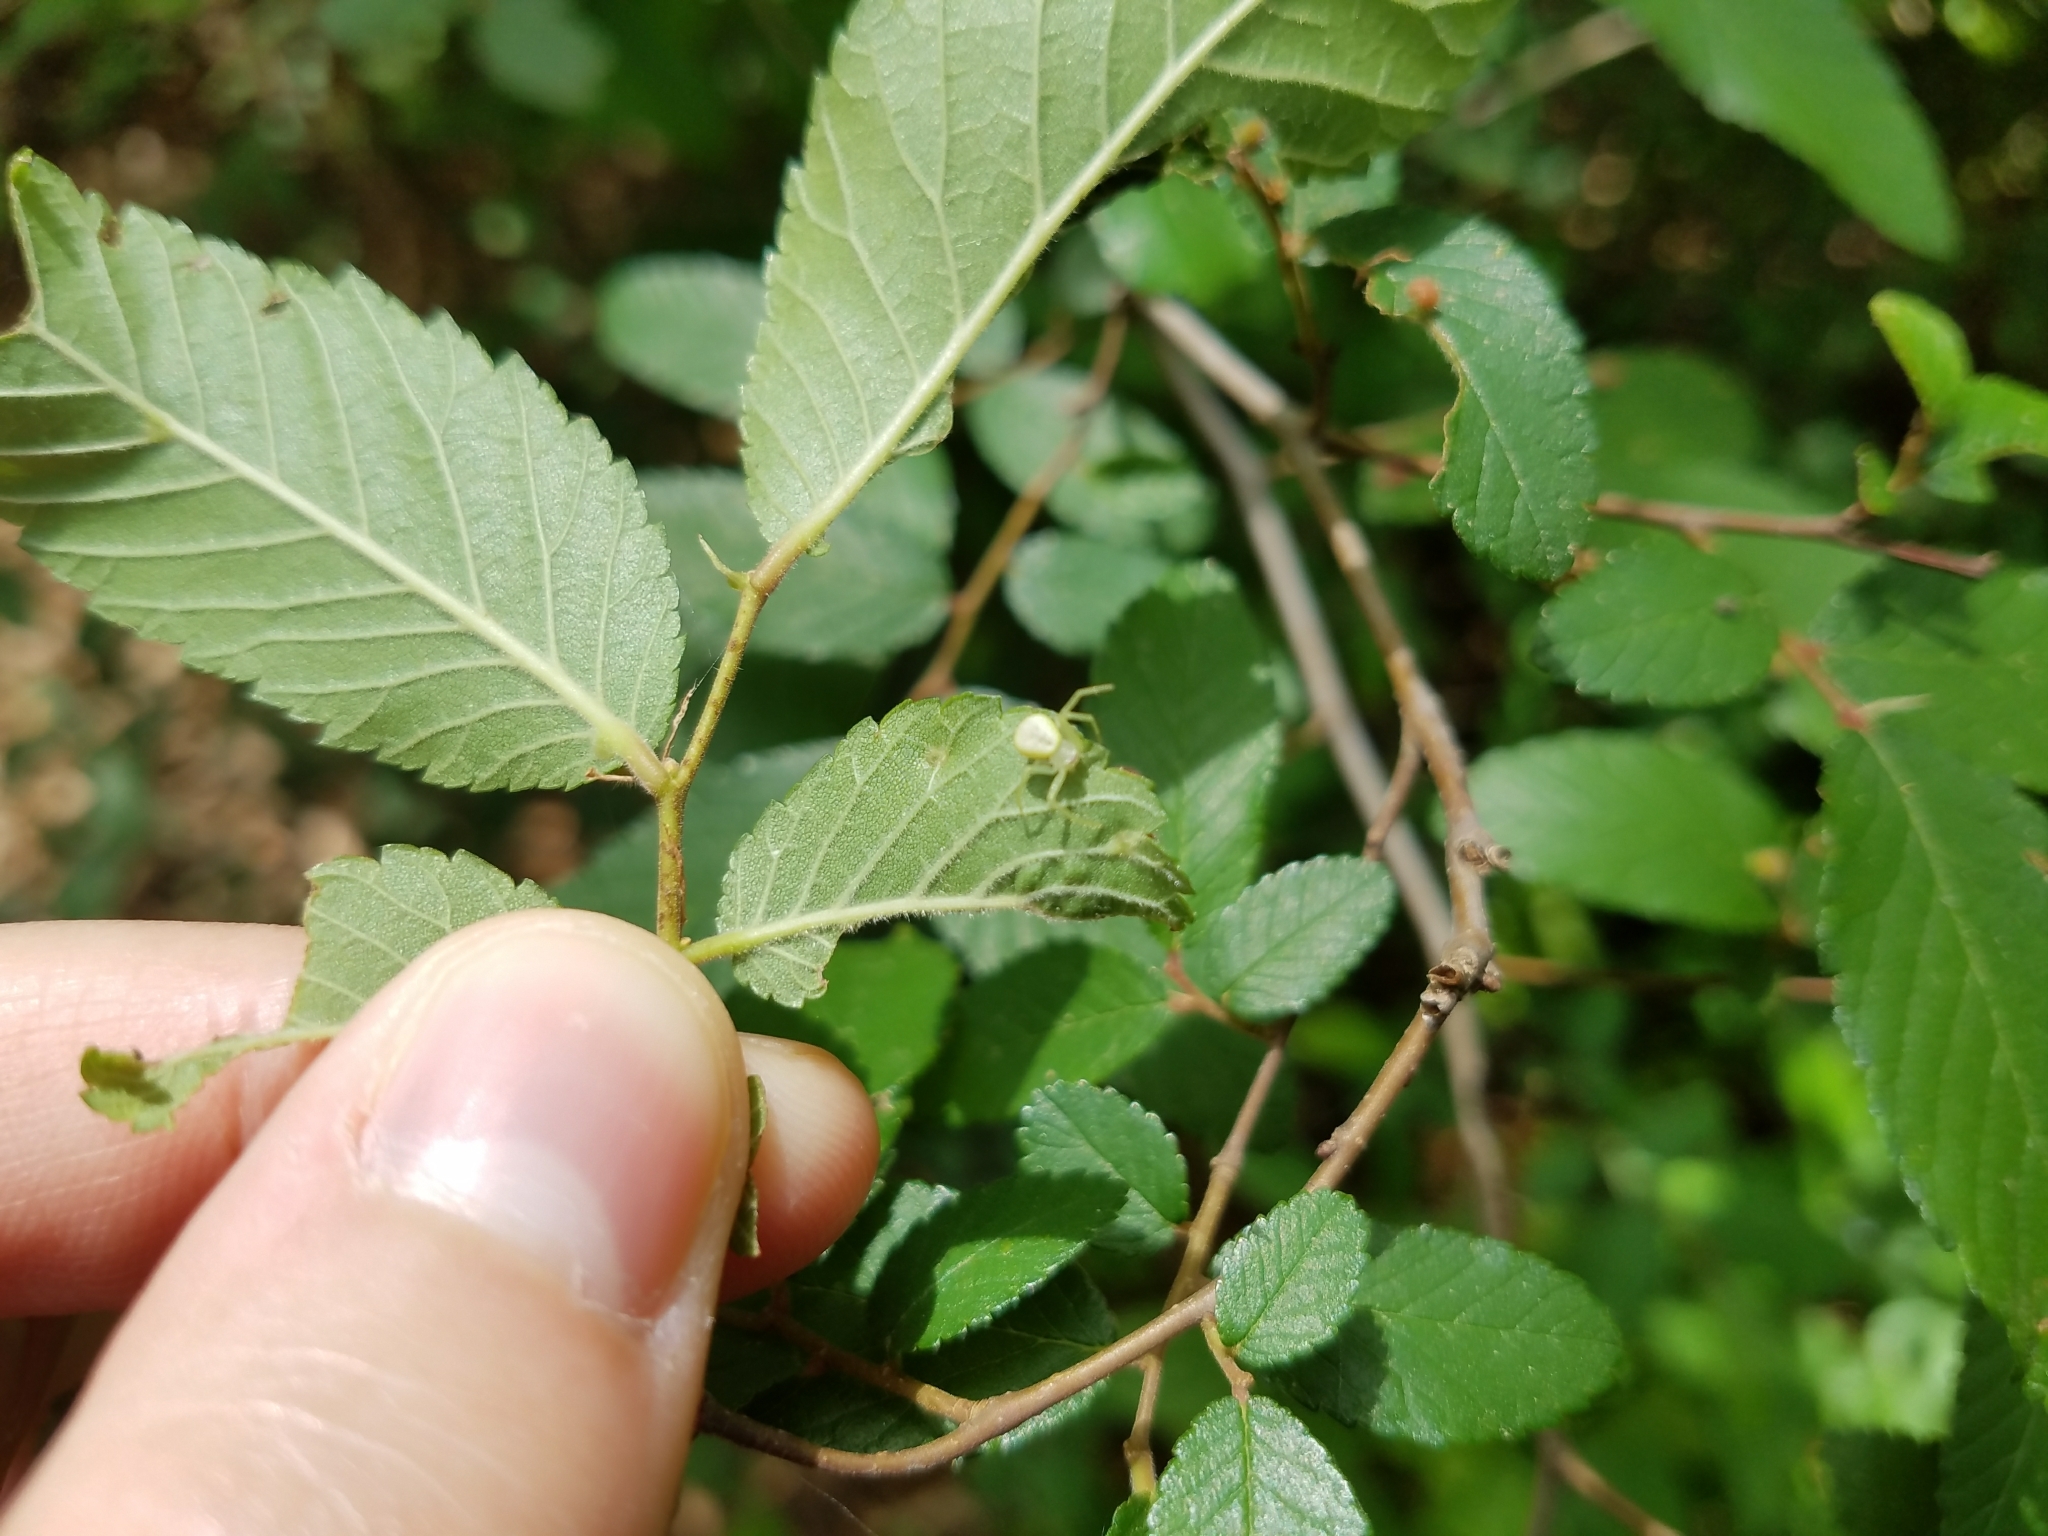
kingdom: Plantae
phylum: Tracheophyta
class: Magnoliopsida
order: Rosales
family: Ulmaceae
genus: Ulmus
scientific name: Ulmus crassifolia
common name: Basket elm
